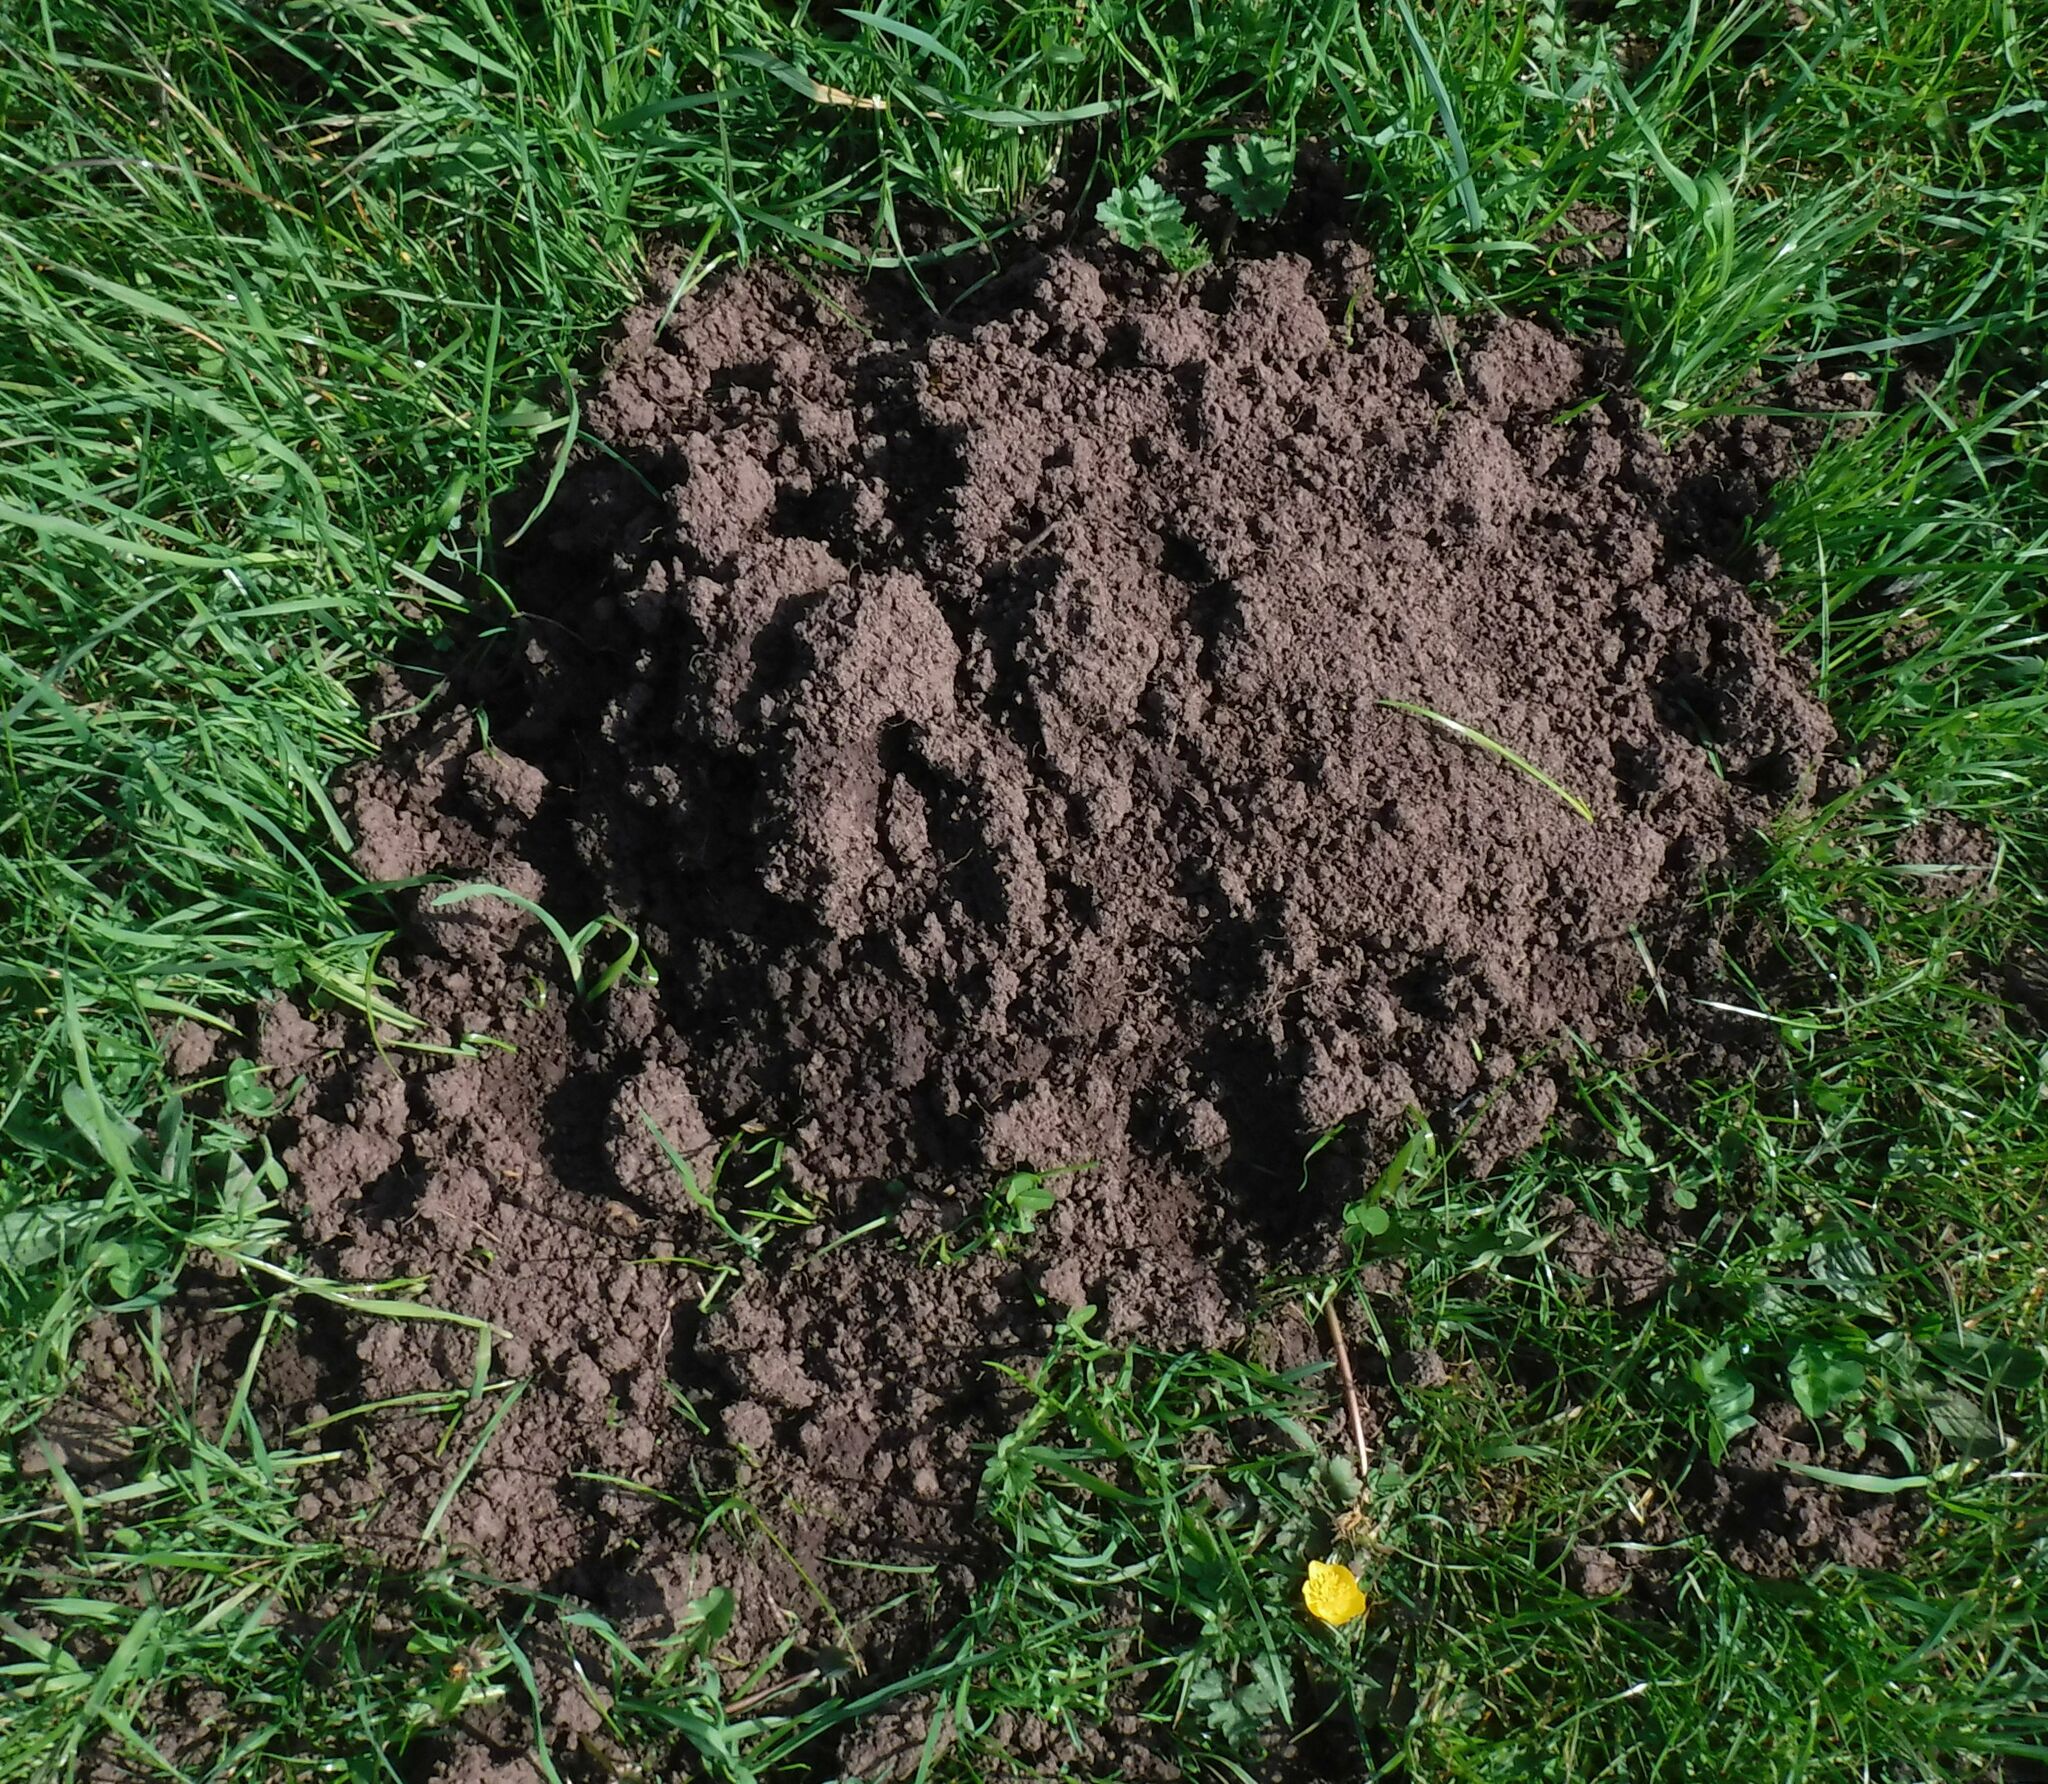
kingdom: Animalia
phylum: Chordata
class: Mammalia
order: Soricomorpha
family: Talpidae
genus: Talpa
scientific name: Talpa europaea
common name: European mole
